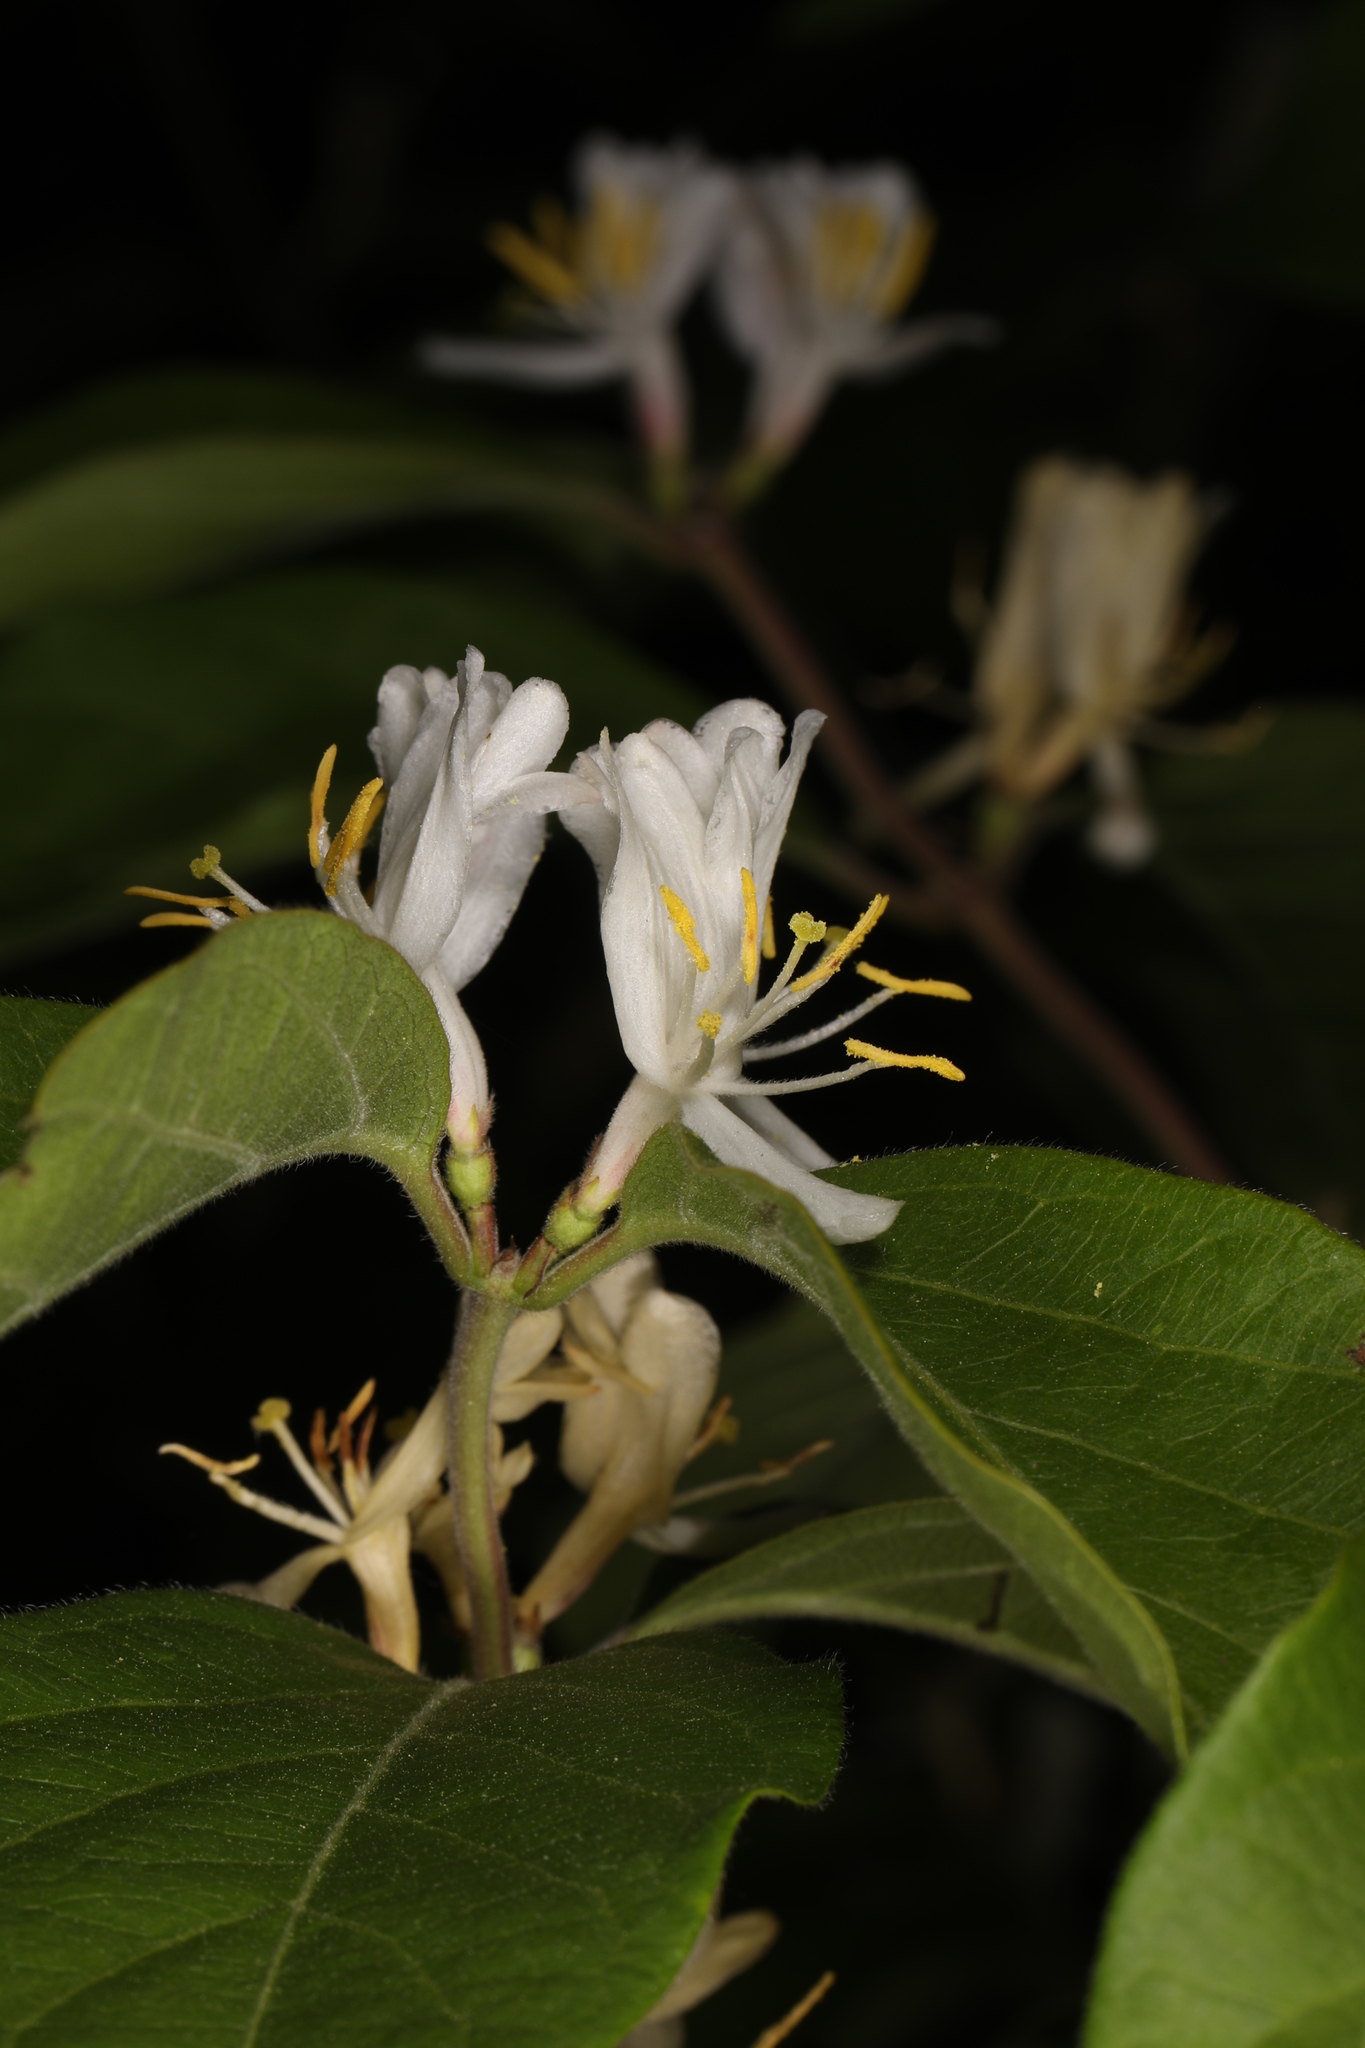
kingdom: Plantae
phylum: Tracheophyta
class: Magnoliopsida
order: Dipsacales
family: Caprifoliaceae
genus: Lonicera
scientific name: Lonicera maackii
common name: Amur honeysuckle
